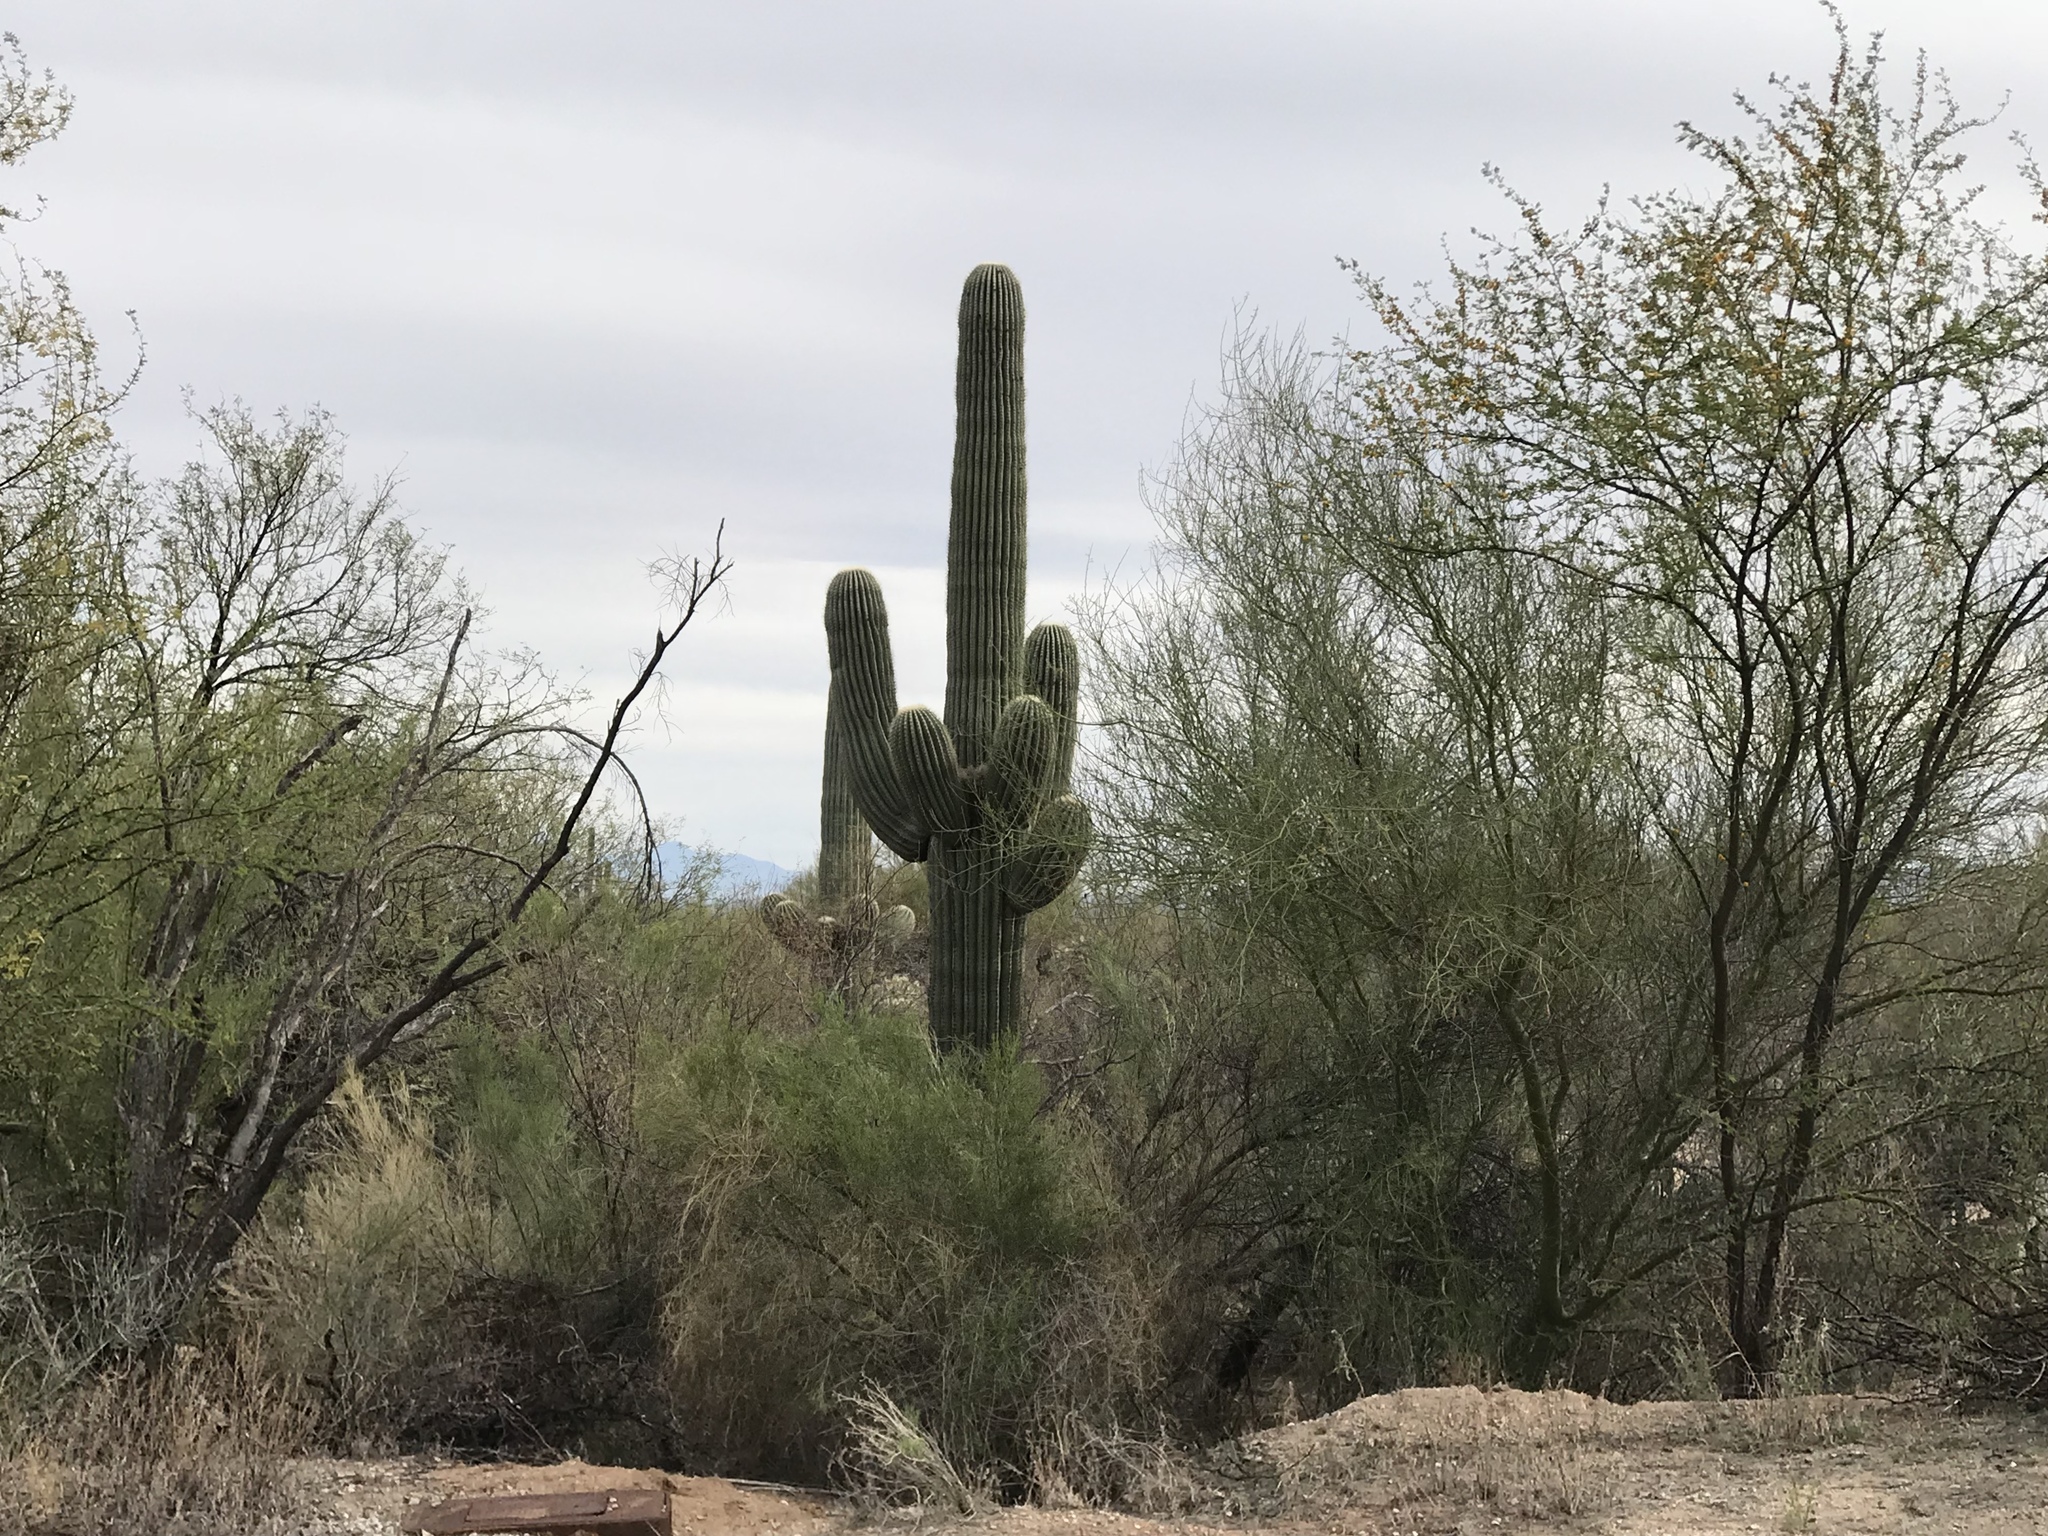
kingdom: Plantae
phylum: Tracheophyta
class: Magnoliopsida
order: Caryophyllales
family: Cactaceae
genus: Carnegiea
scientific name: Carnegiea gigantea
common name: Saguaro
